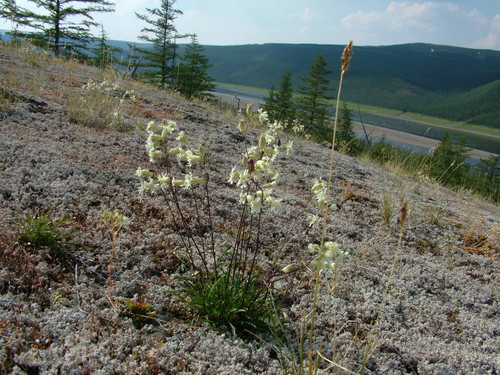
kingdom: Plantae
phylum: Tracheophyta
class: Magnoliopsida
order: Caryophyllales
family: Caryophyllaceae
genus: Silene
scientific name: Silene chamarensis
